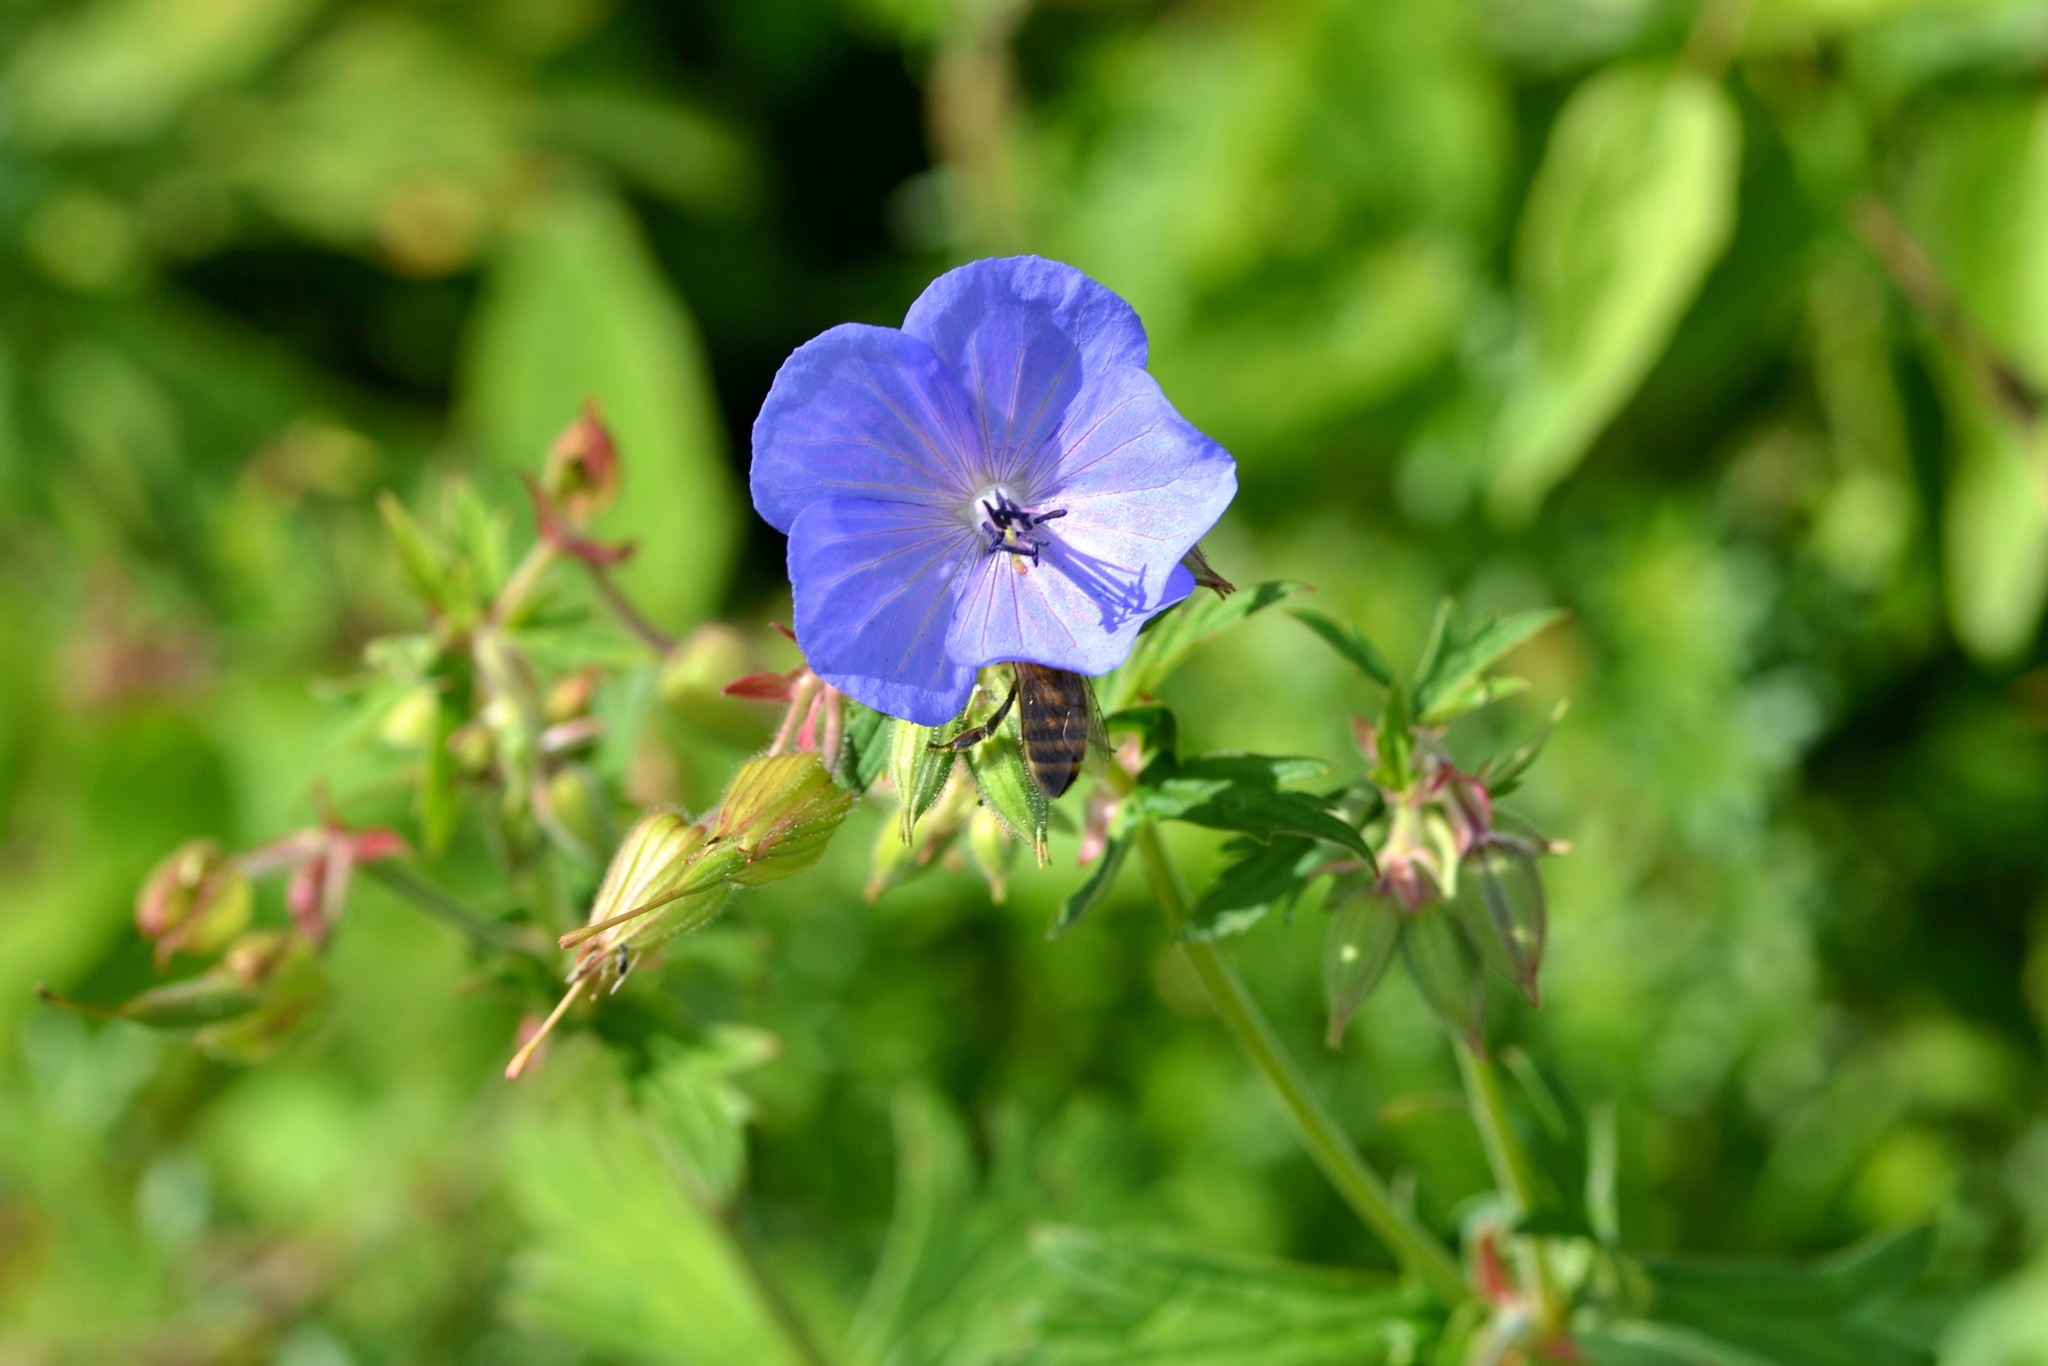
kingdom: Plantae
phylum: Tracheophyta
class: Magnoliopsida
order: Geraniales
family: Geraniaceae
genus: Geranium
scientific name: Geranium pratense
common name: Meadow crane's-bill
